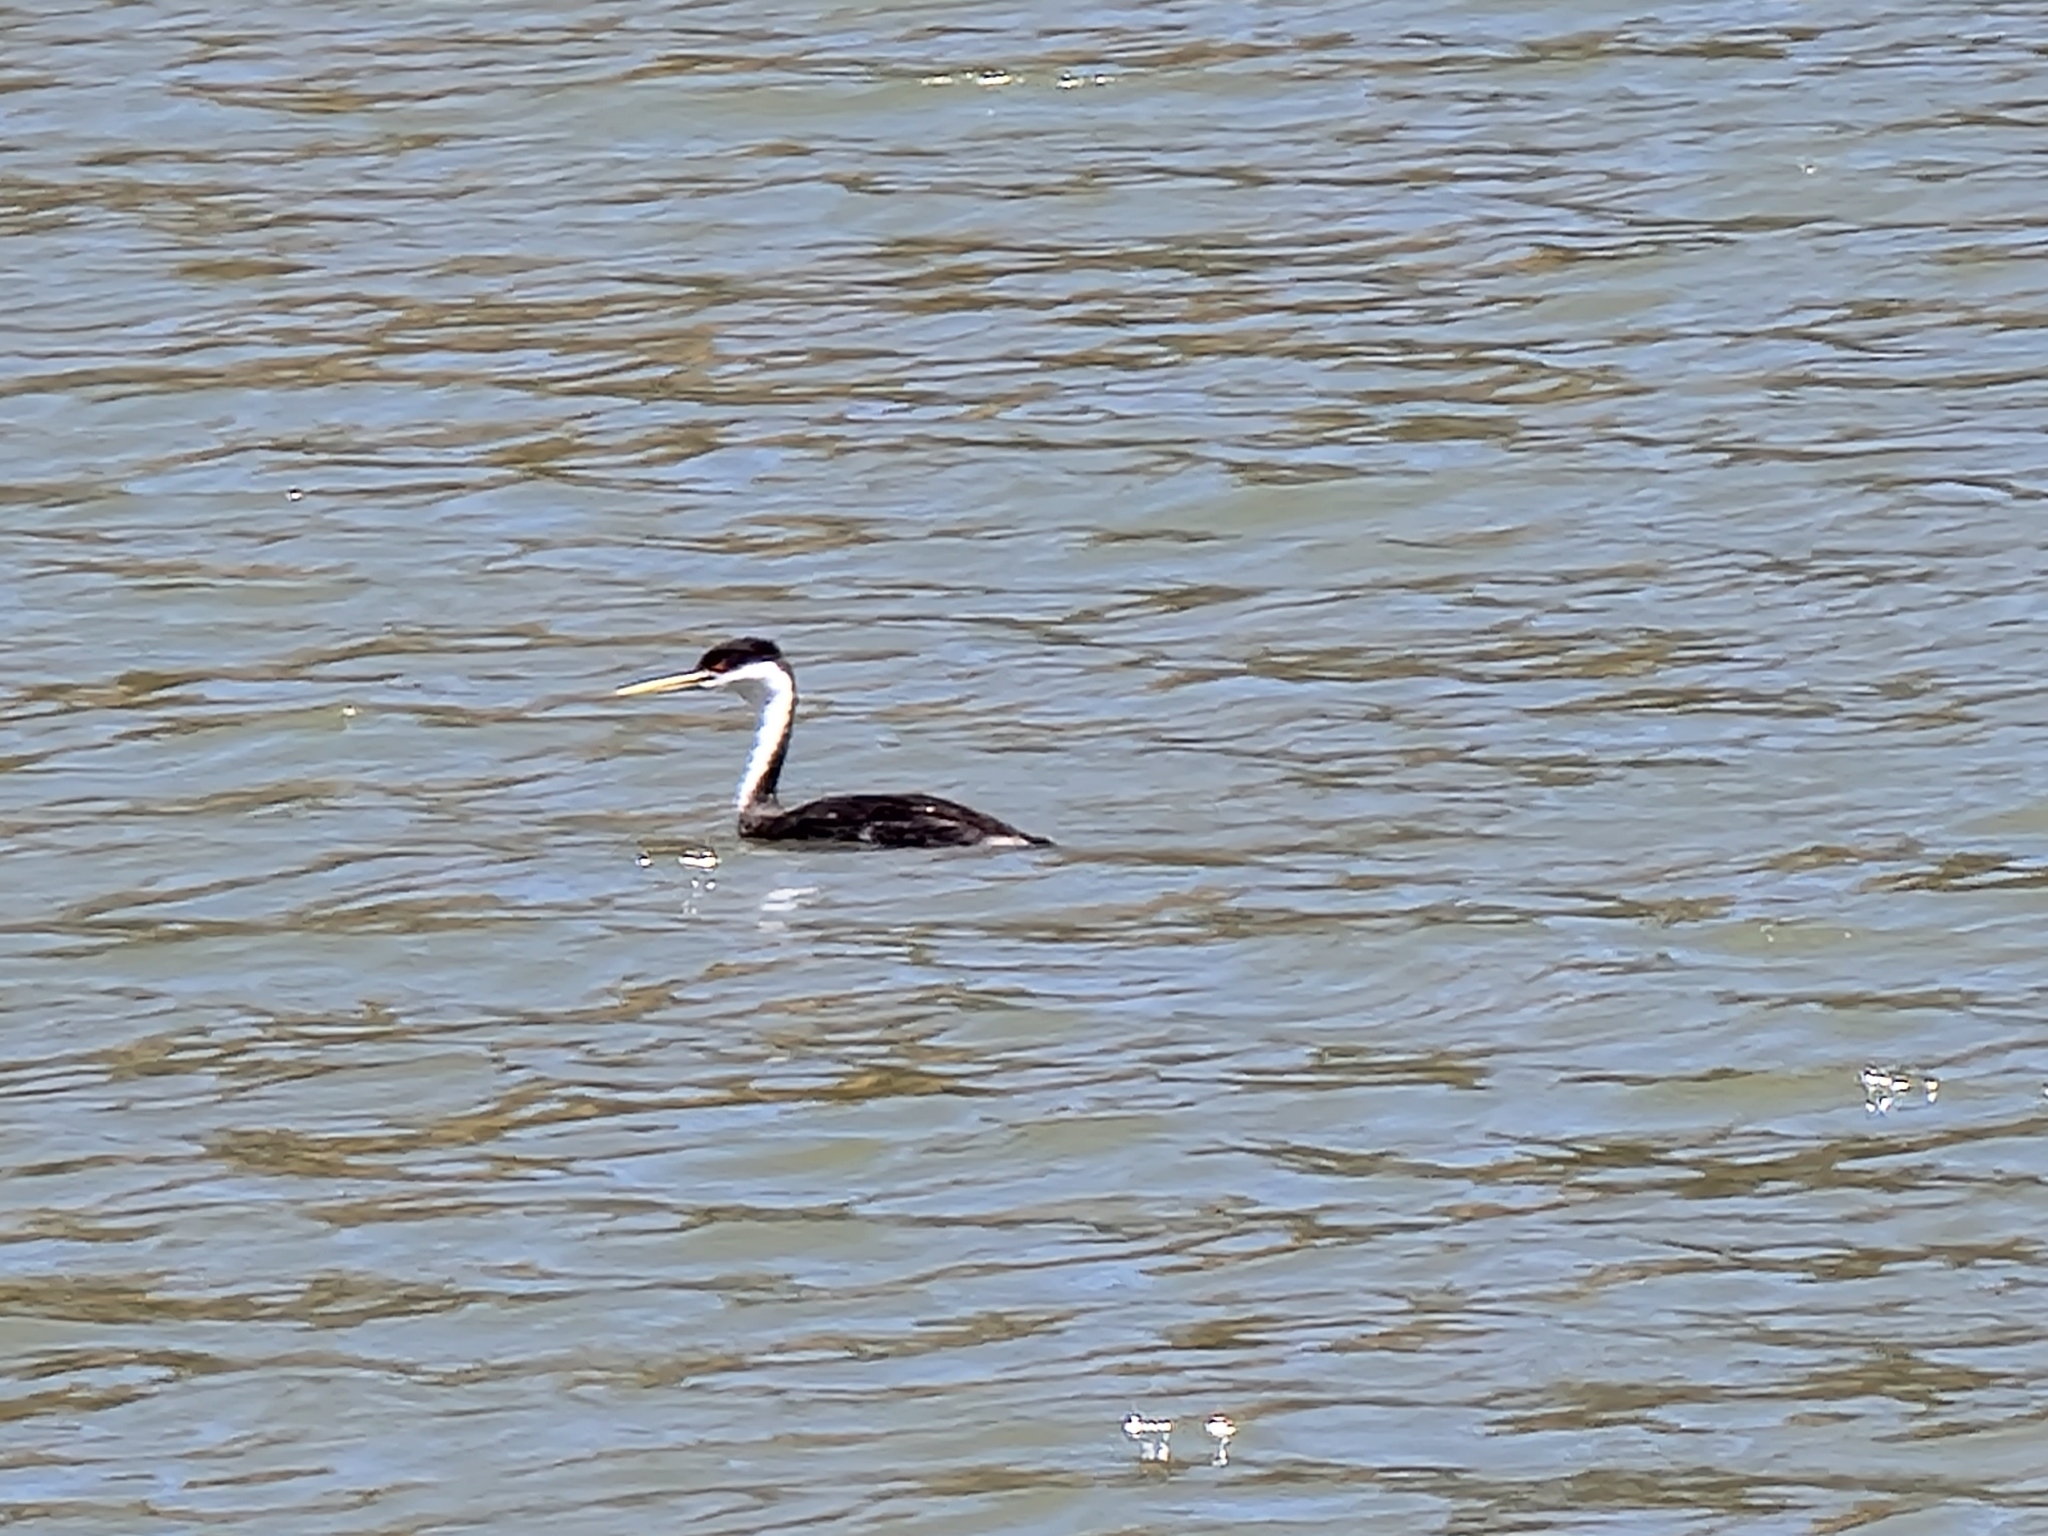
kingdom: Animalia
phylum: Chordata
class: Aves
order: Podicipediformes
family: Podicipedidae
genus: Aechmophorus
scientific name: Aechmophorus occidentalis
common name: Western grebe
